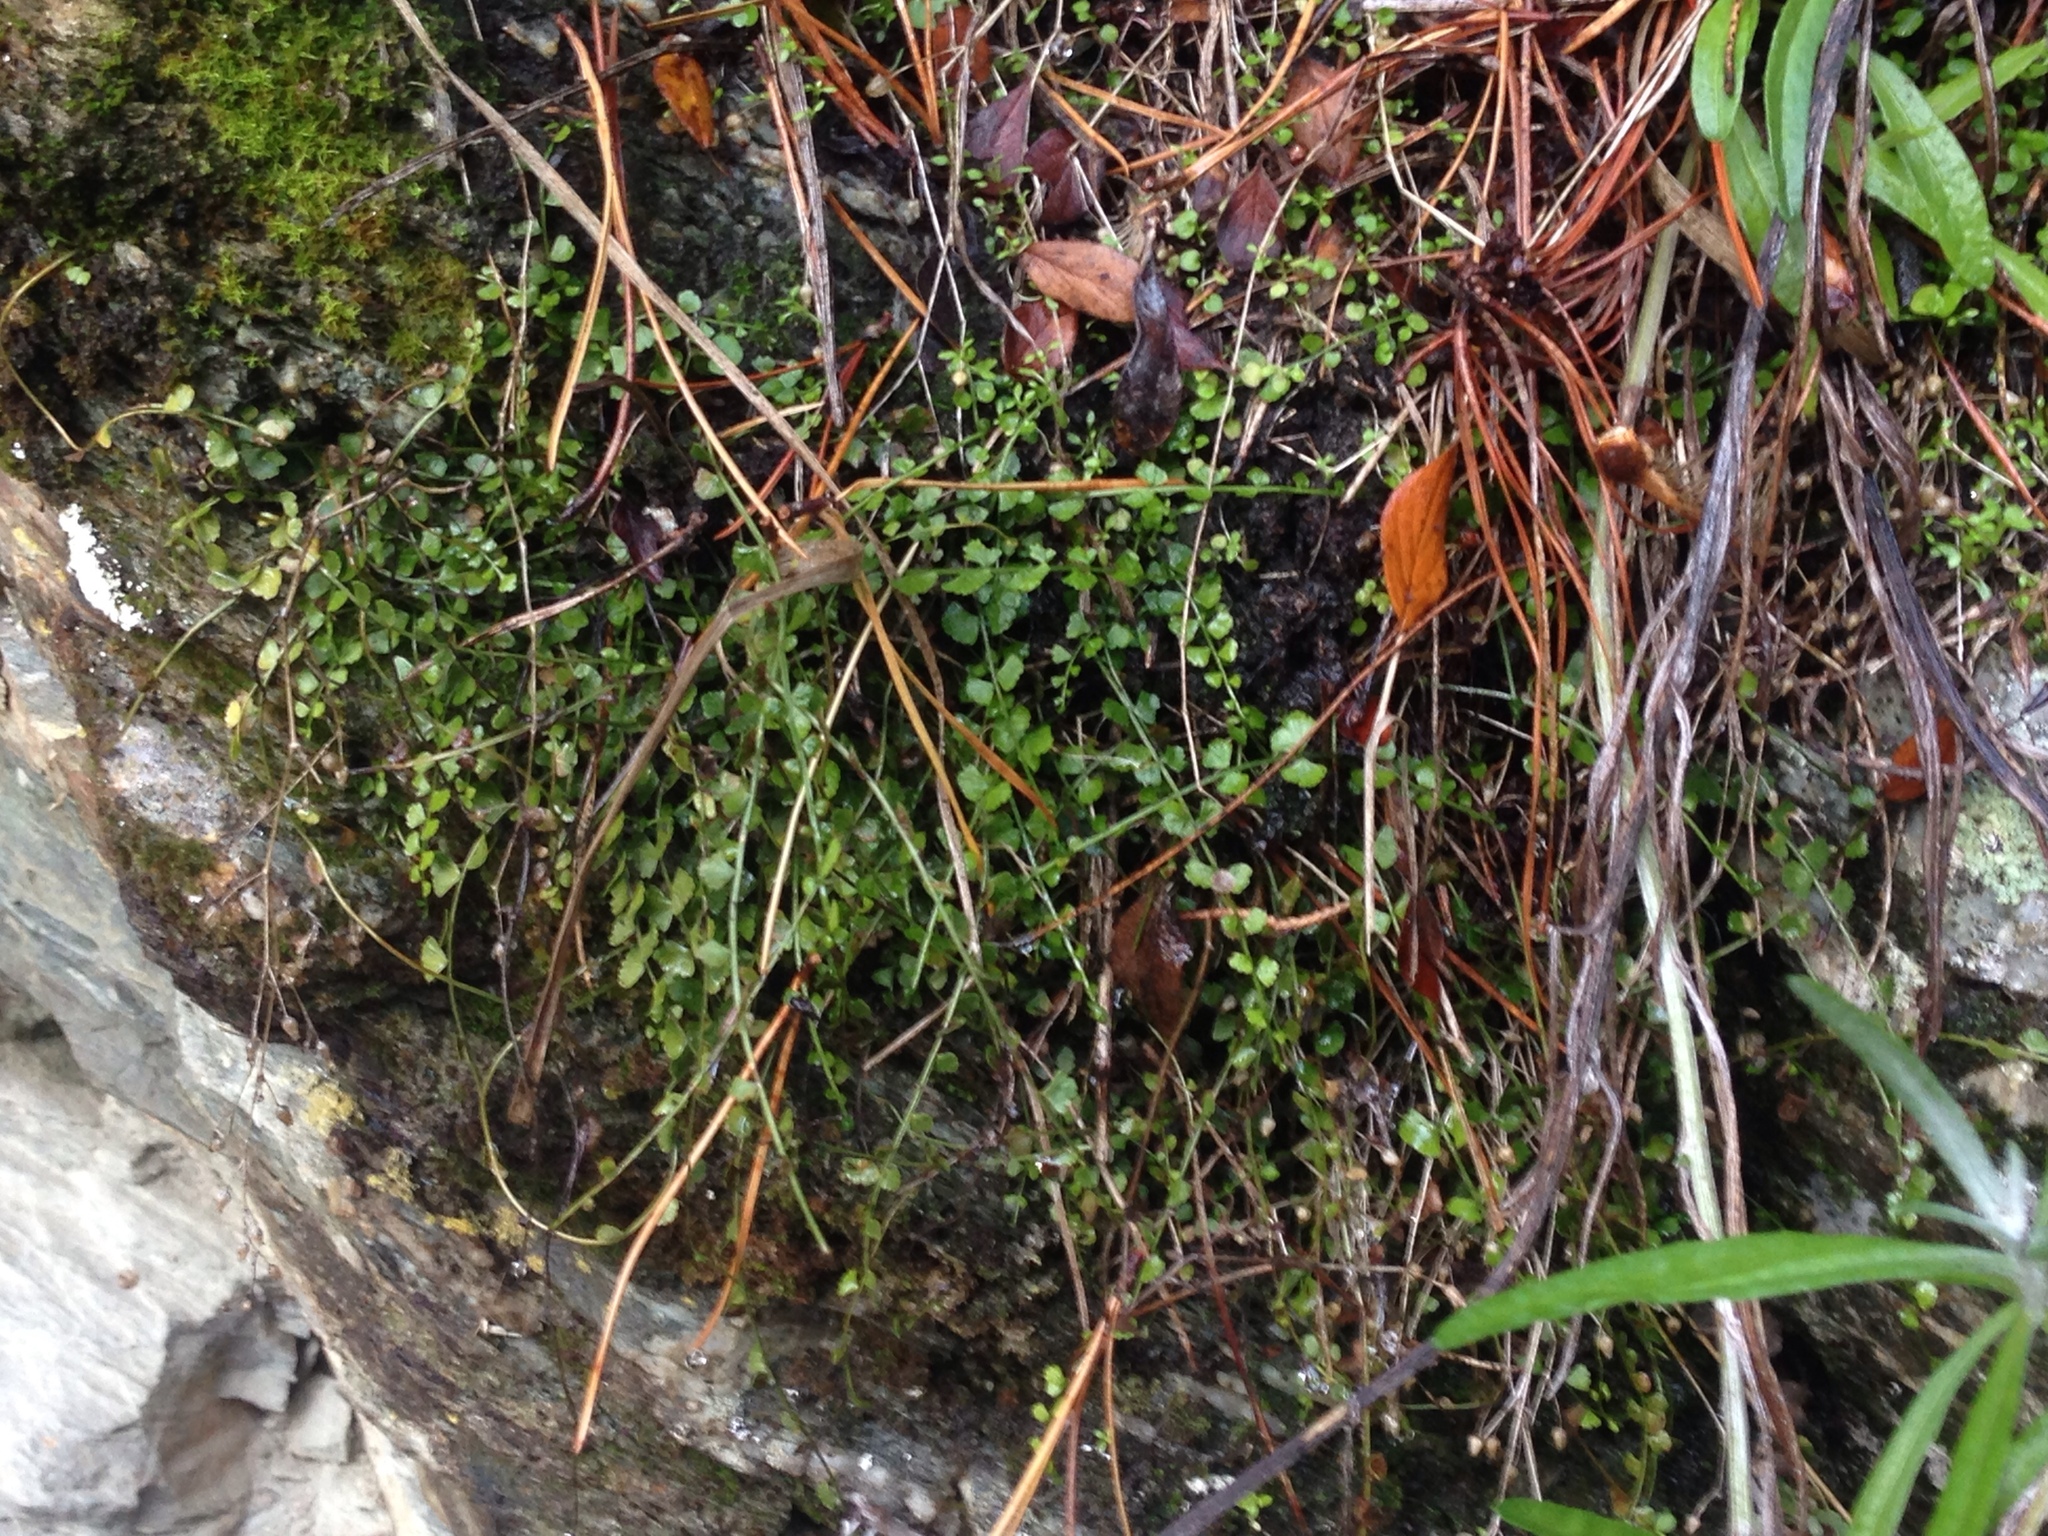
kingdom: Plantae
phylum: Tracheophyta
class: Polypodiopsida
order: Polypodiales
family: Aspleniaceae
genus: Asplenium
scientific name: Asplenium flabellifolium
